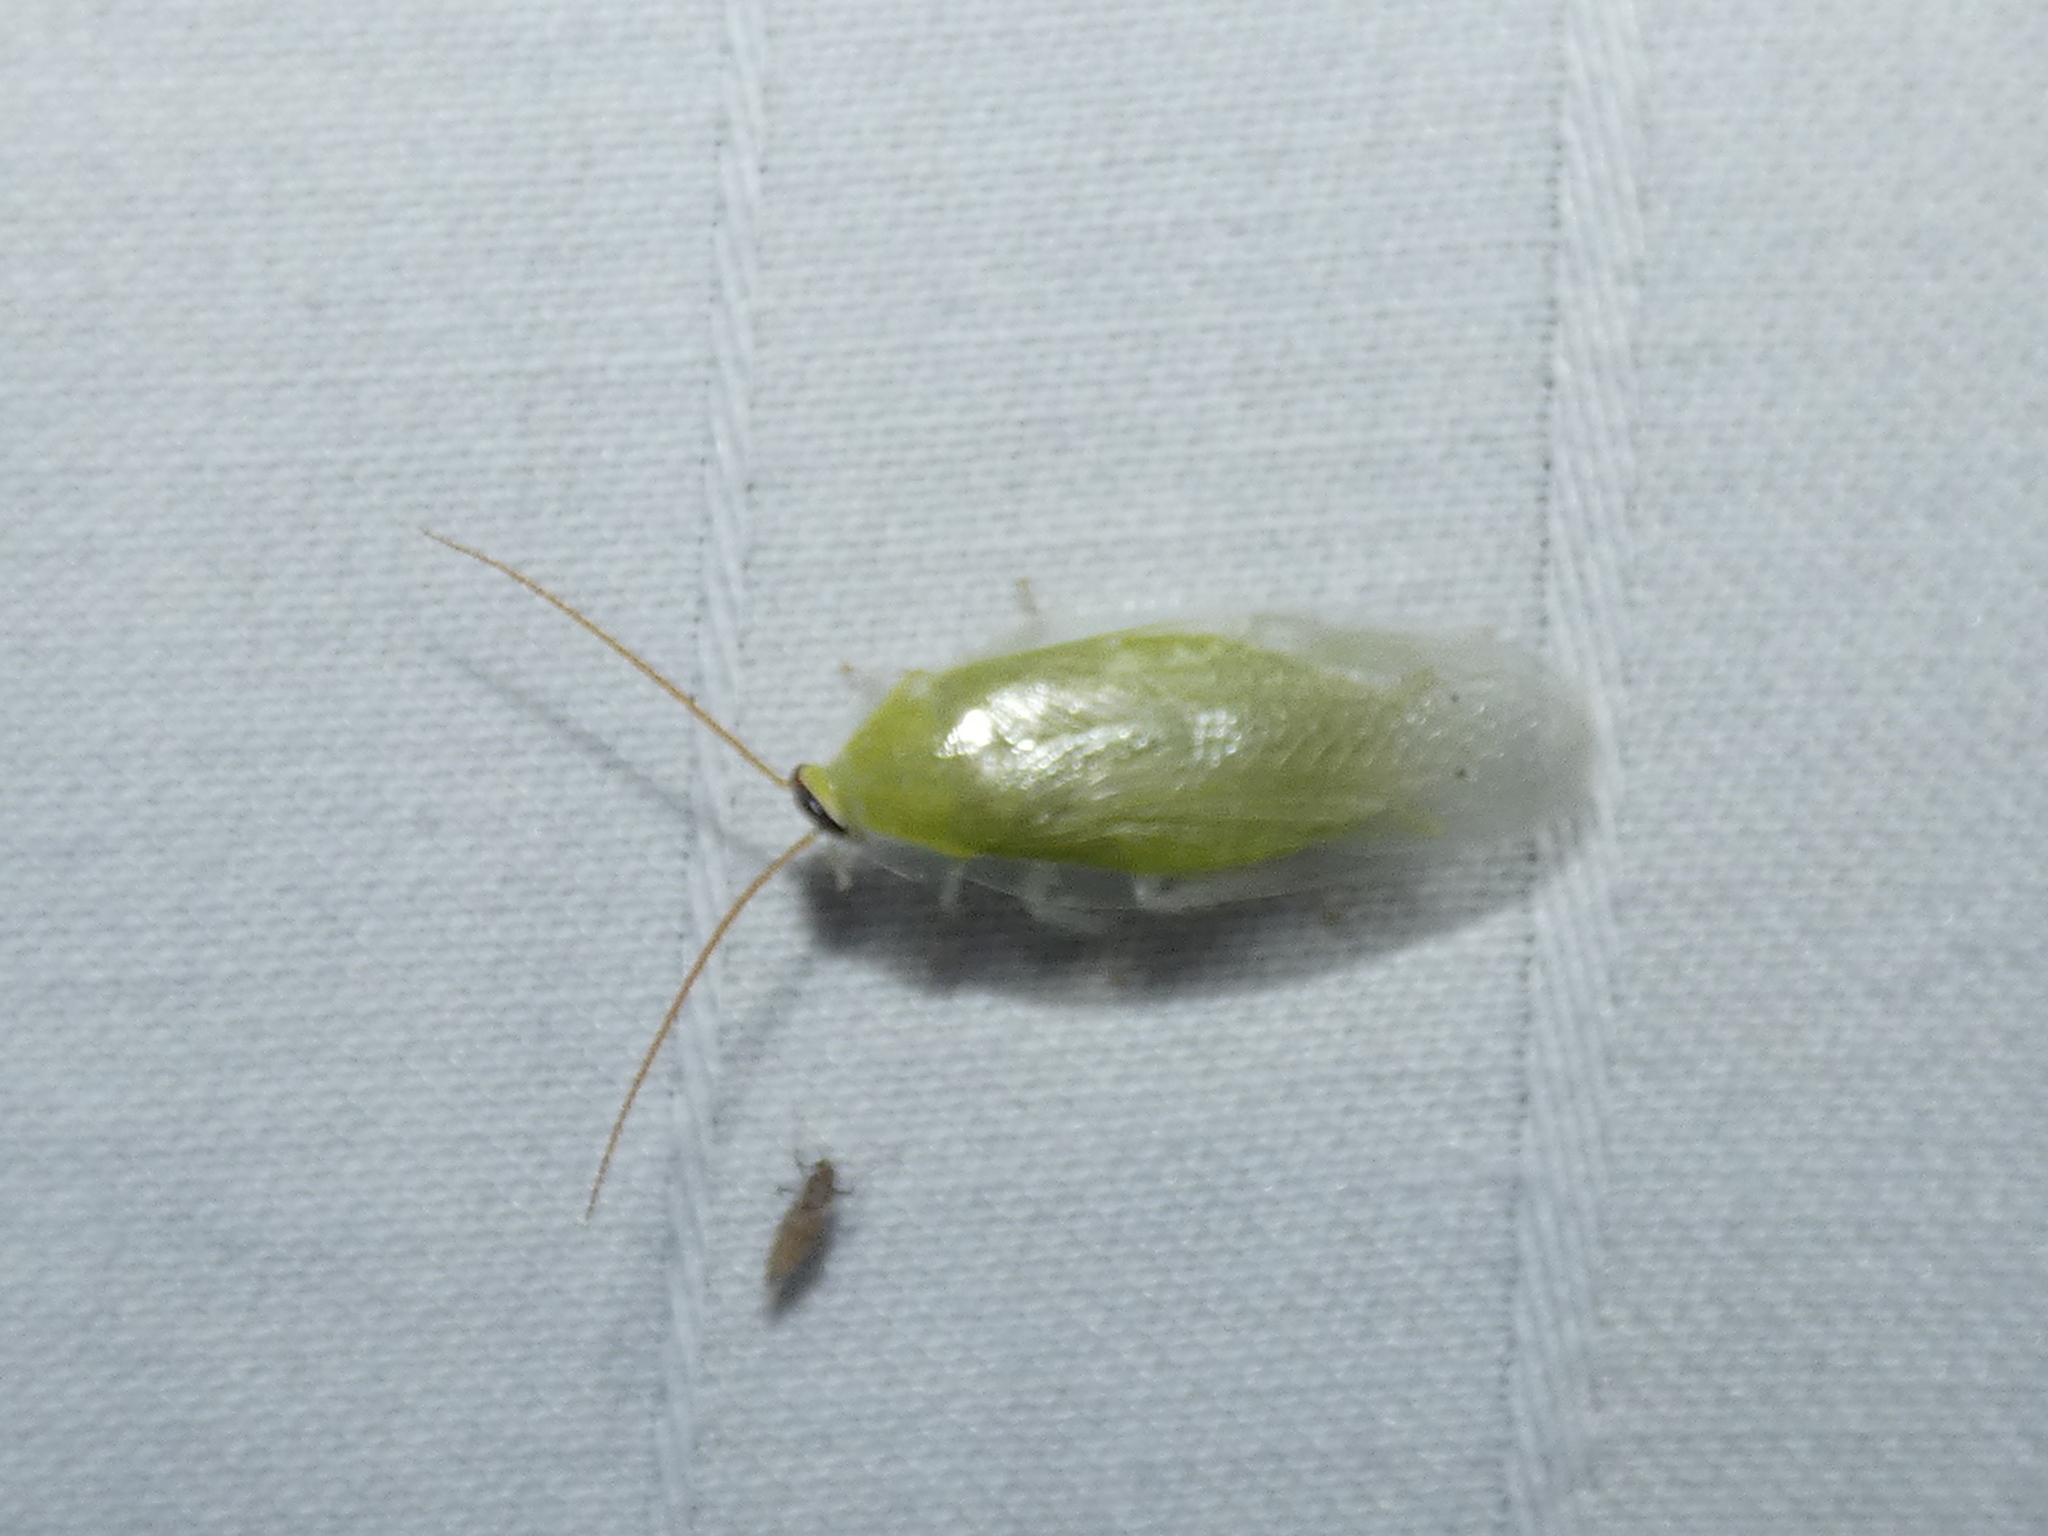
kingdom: Animalia
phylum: Arthropoda
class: Insecta
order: Blattodea
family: Blaberidae
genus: Panchlora
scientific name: Panchlora nivea
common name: Cuban cockroach
